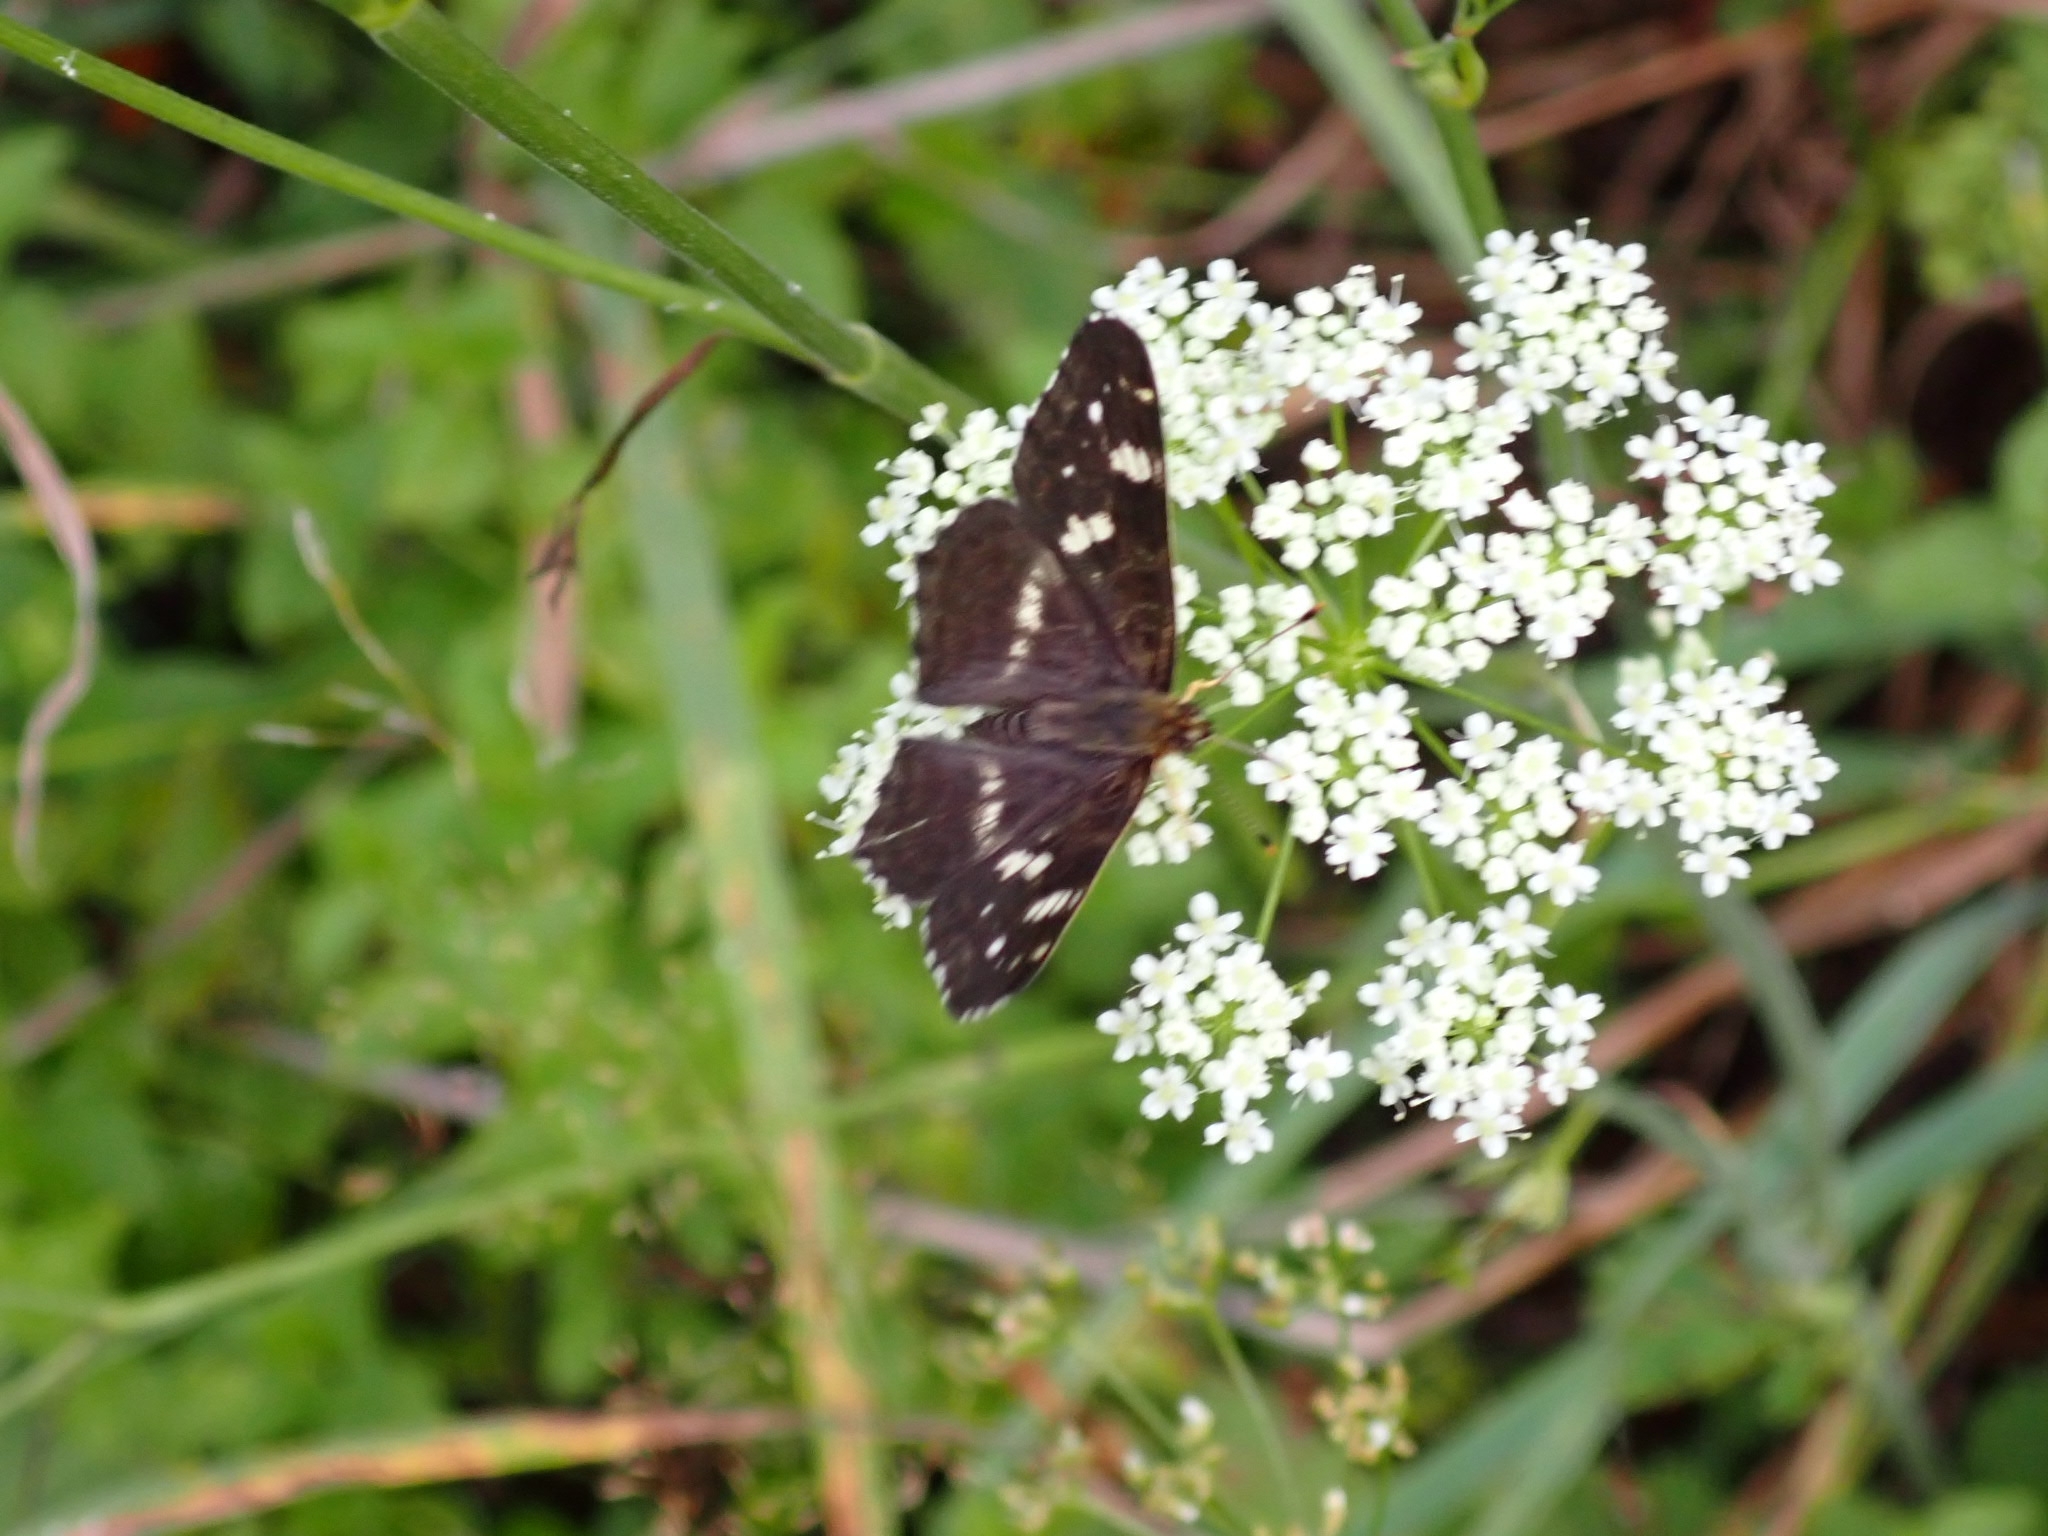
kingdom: Animalia
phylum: Arthropoda
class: Insecta
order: Lepidoptera
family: Nymphalidae
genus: Araschnia
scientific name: Araschnia levana
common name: Map butterfly
